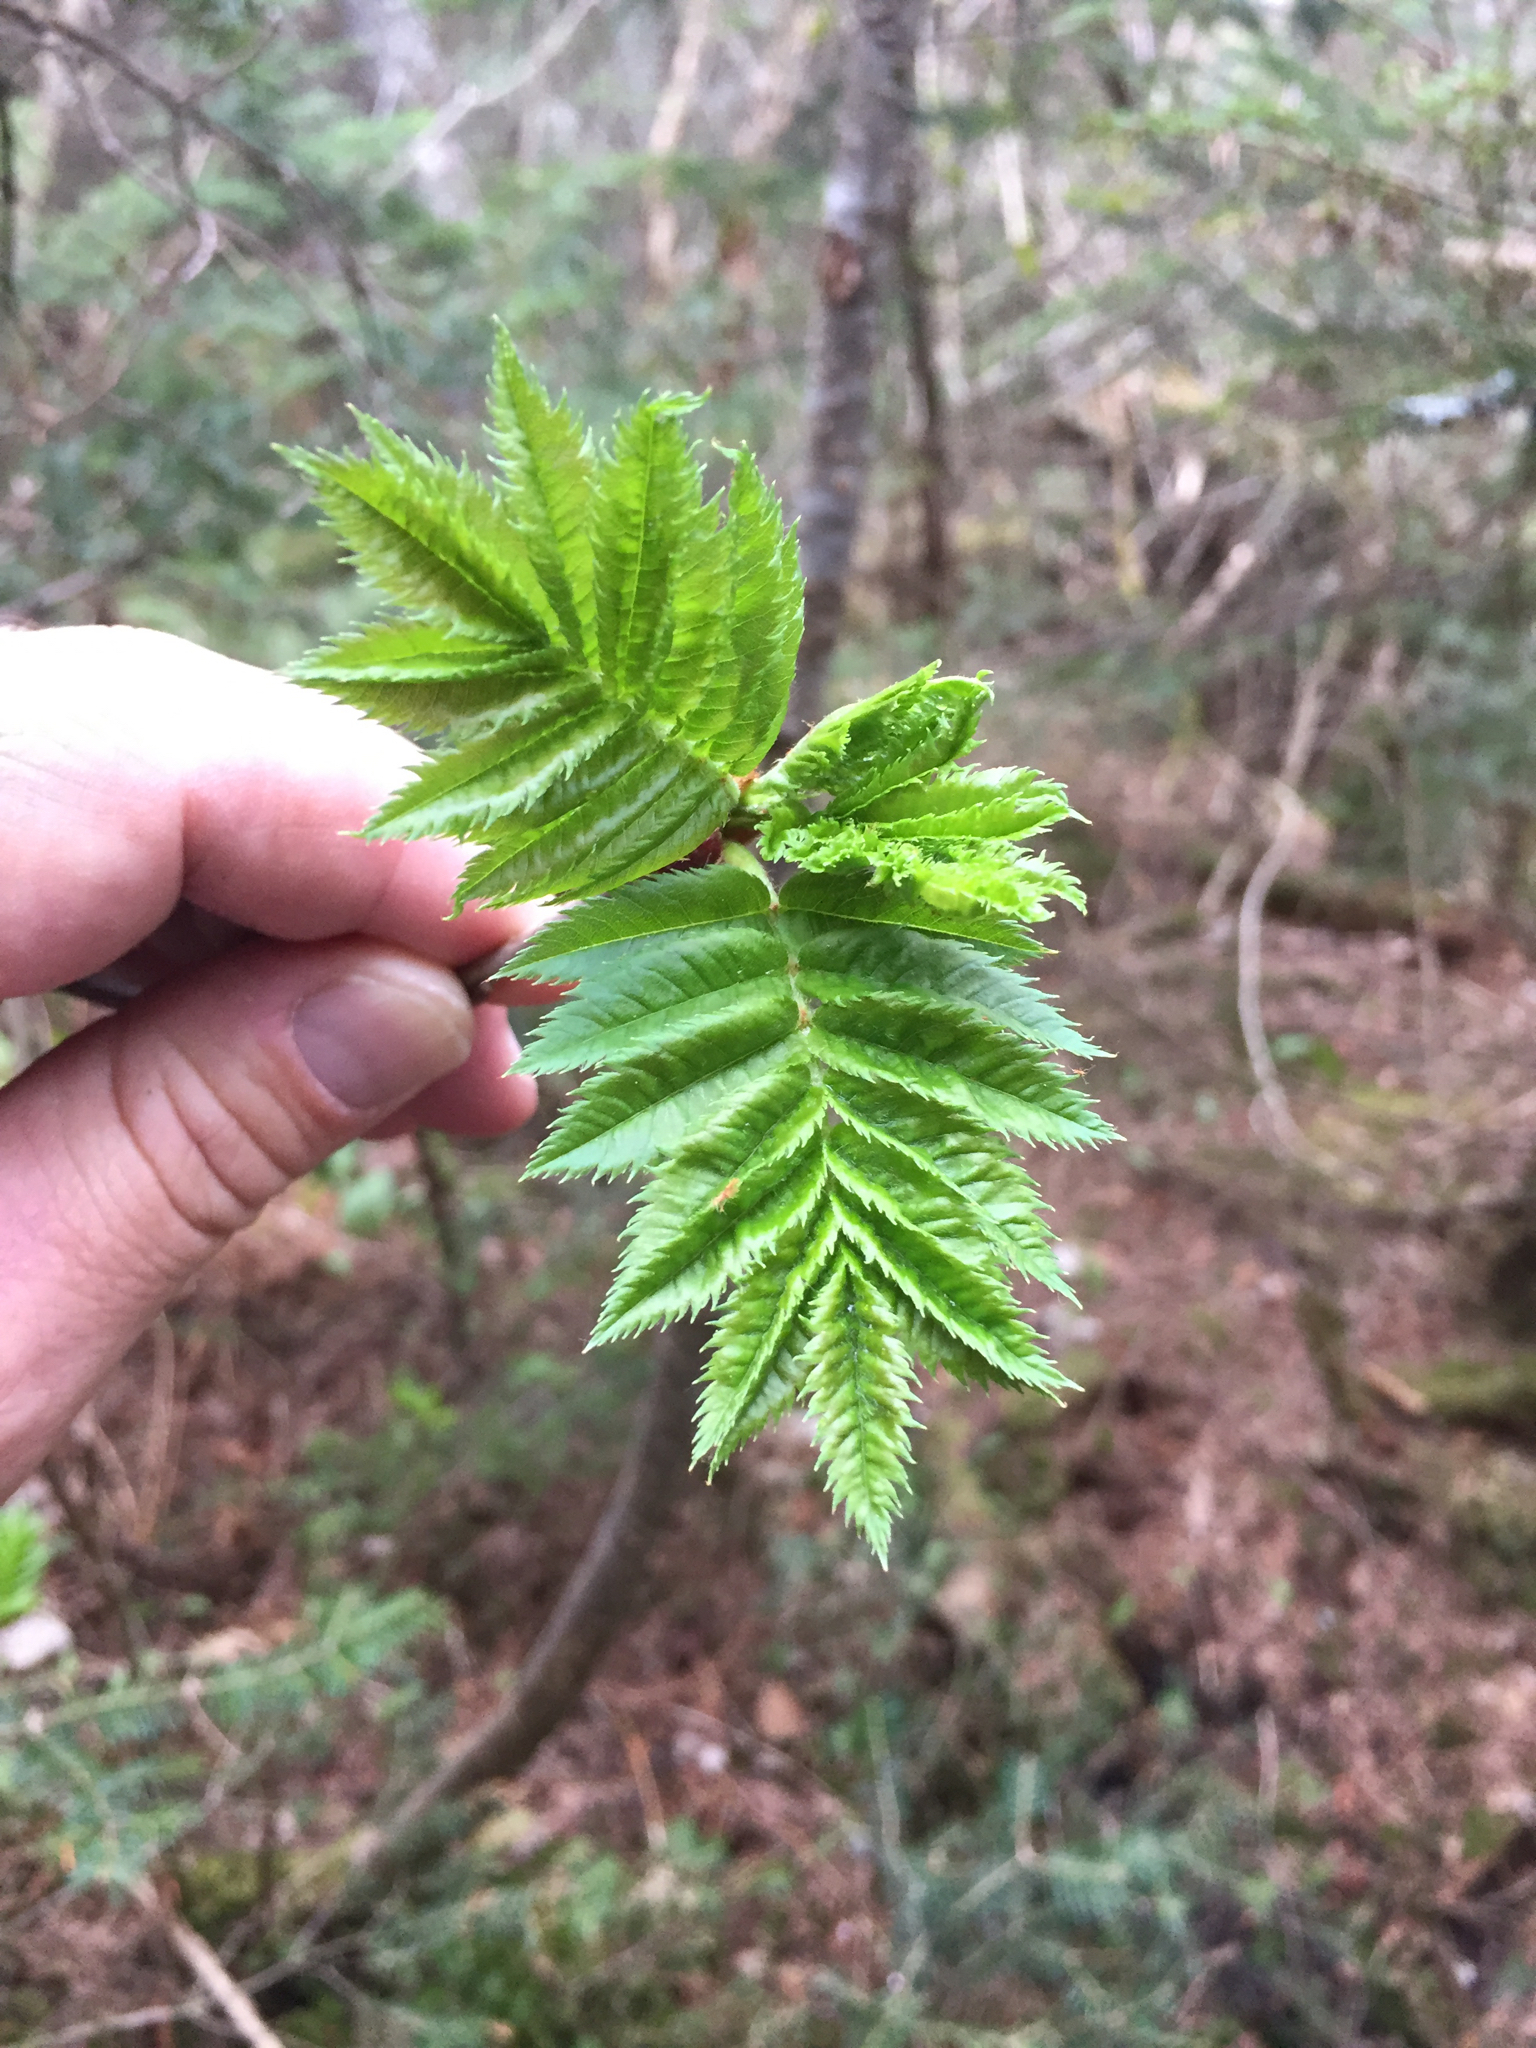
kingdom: Plantae
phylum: Tracheophyta
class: Magnoliopsida
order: Rosales
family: Rosaceae
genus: Sorbus
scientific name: Sorbus americana
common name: American mountain-ash
